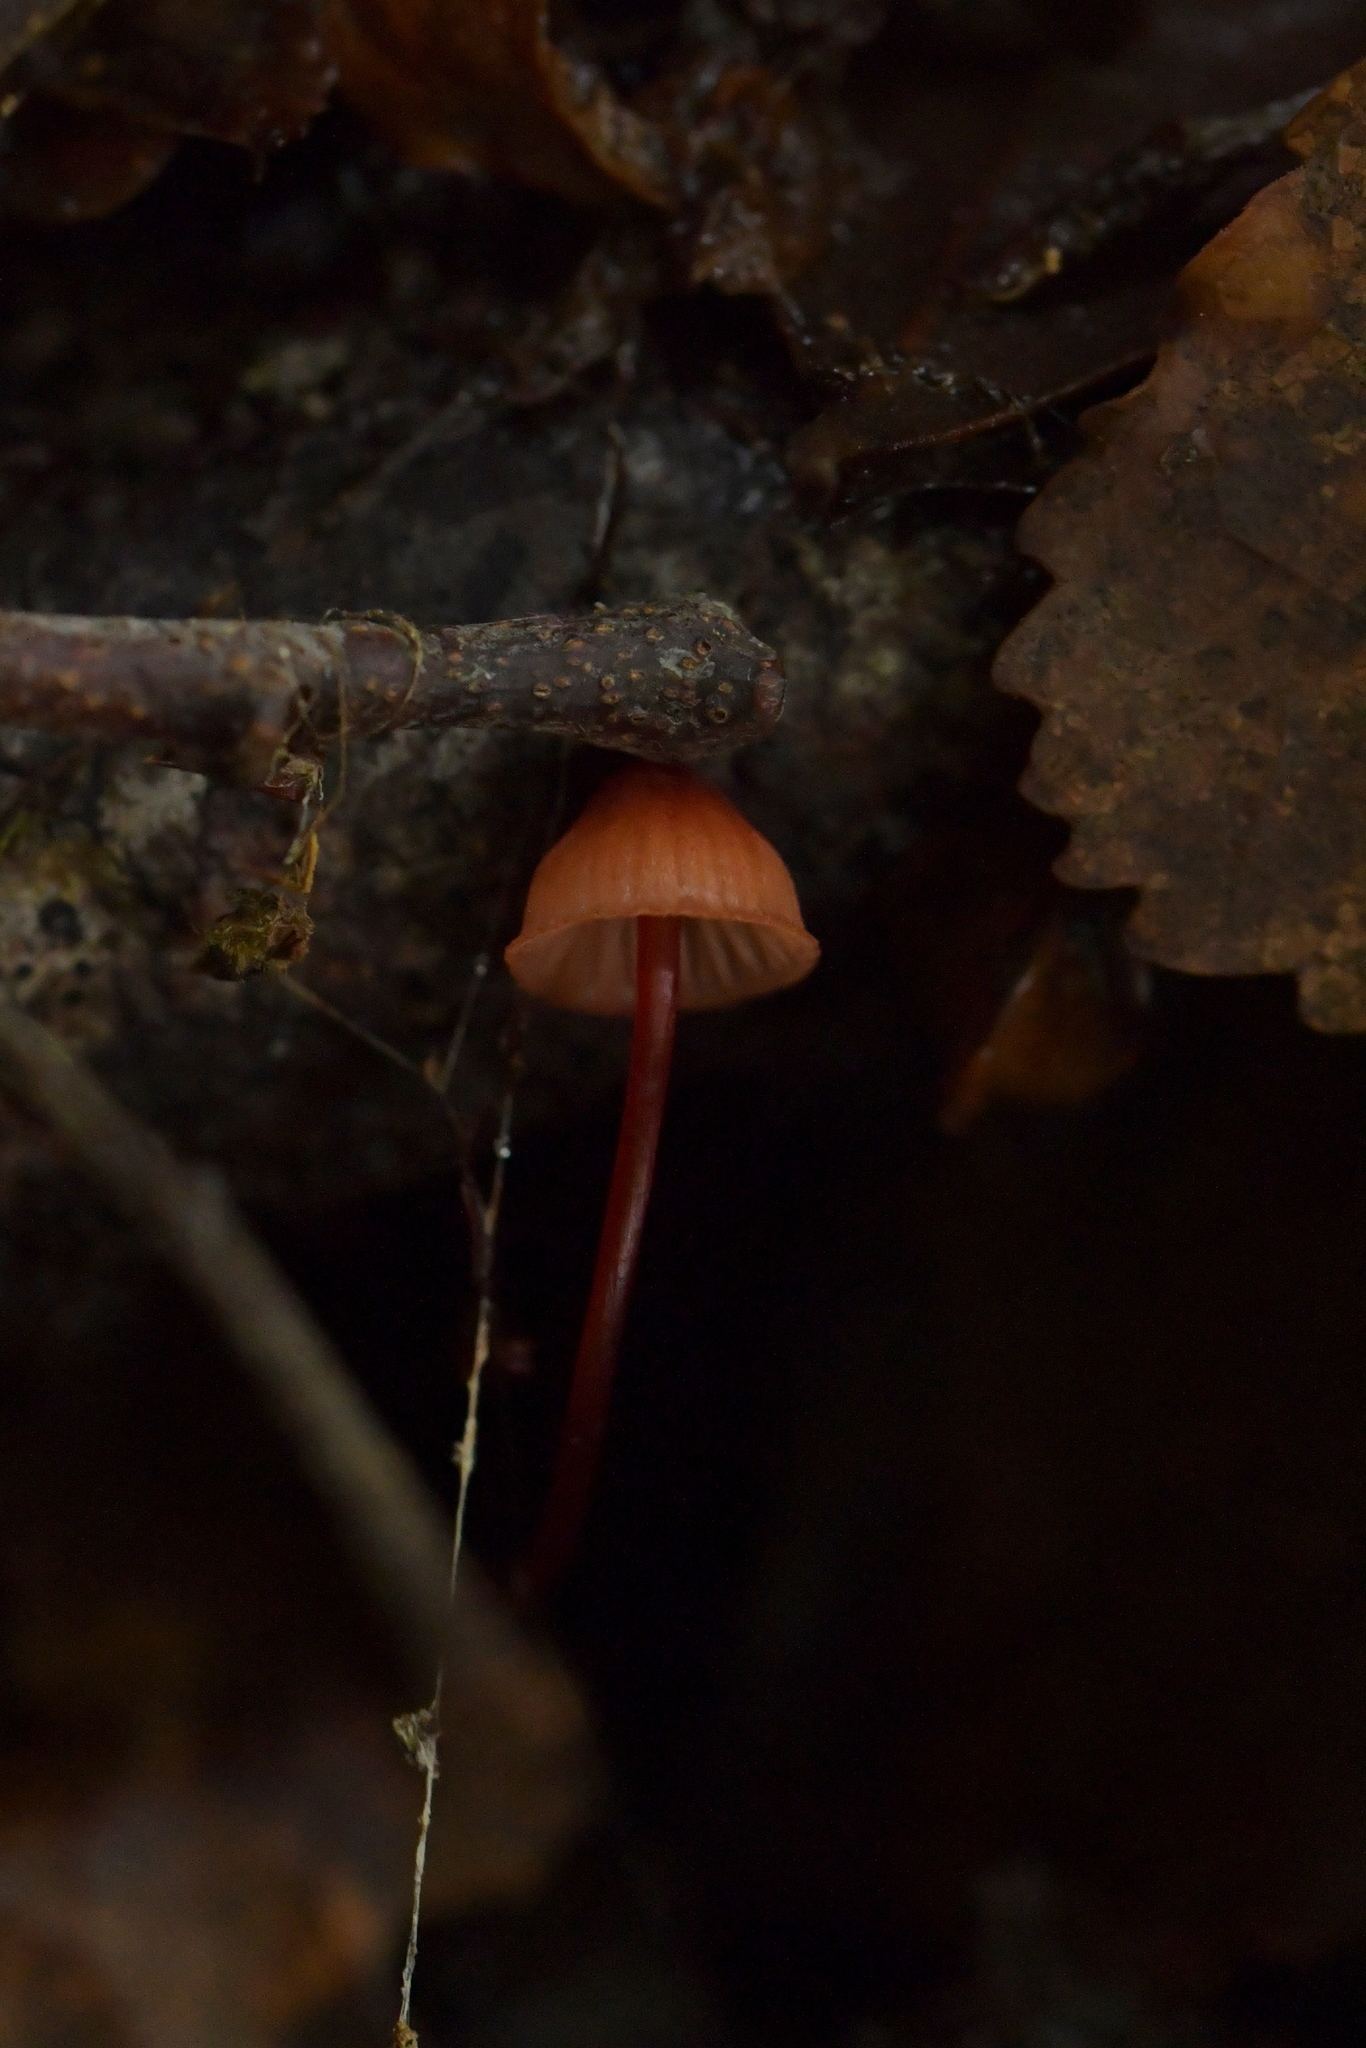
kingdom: Fungi
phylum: Basidiomycota
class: Agaricomycetes
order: Agaricales
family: Mycenaceae
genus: Mycena
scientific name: Mycena ura
